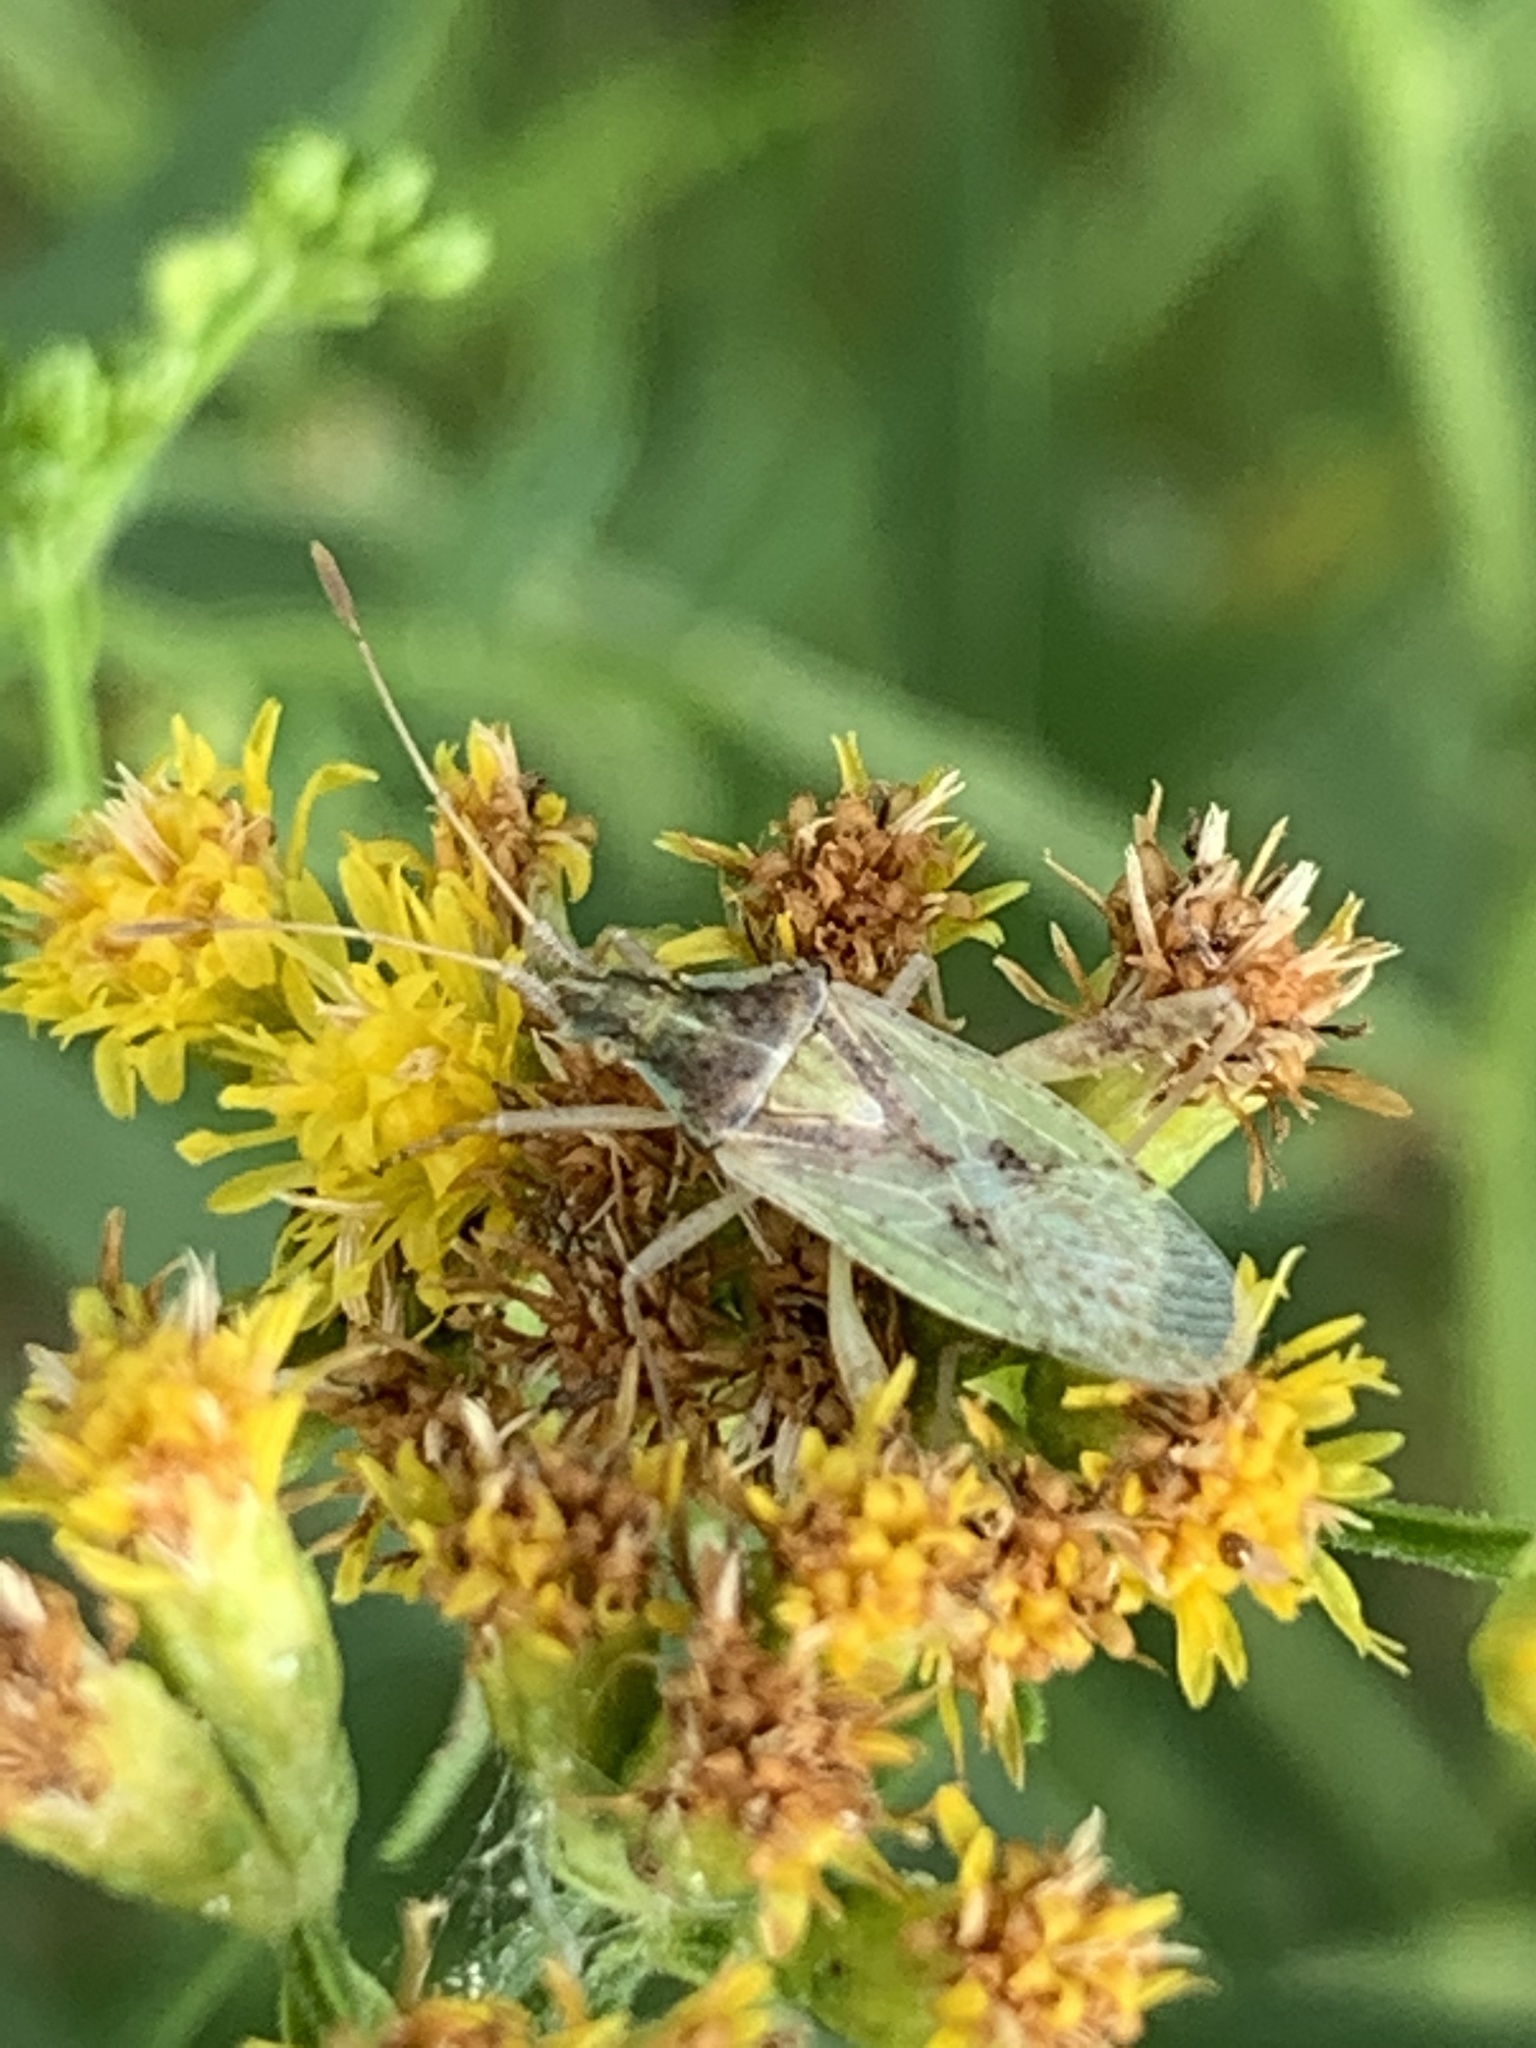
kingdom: Animalia
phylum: Arthropoda
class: Insecta
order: Hemiptera
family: Rhopalidae
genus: Harmostes
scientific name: Harmostes reflexulus
